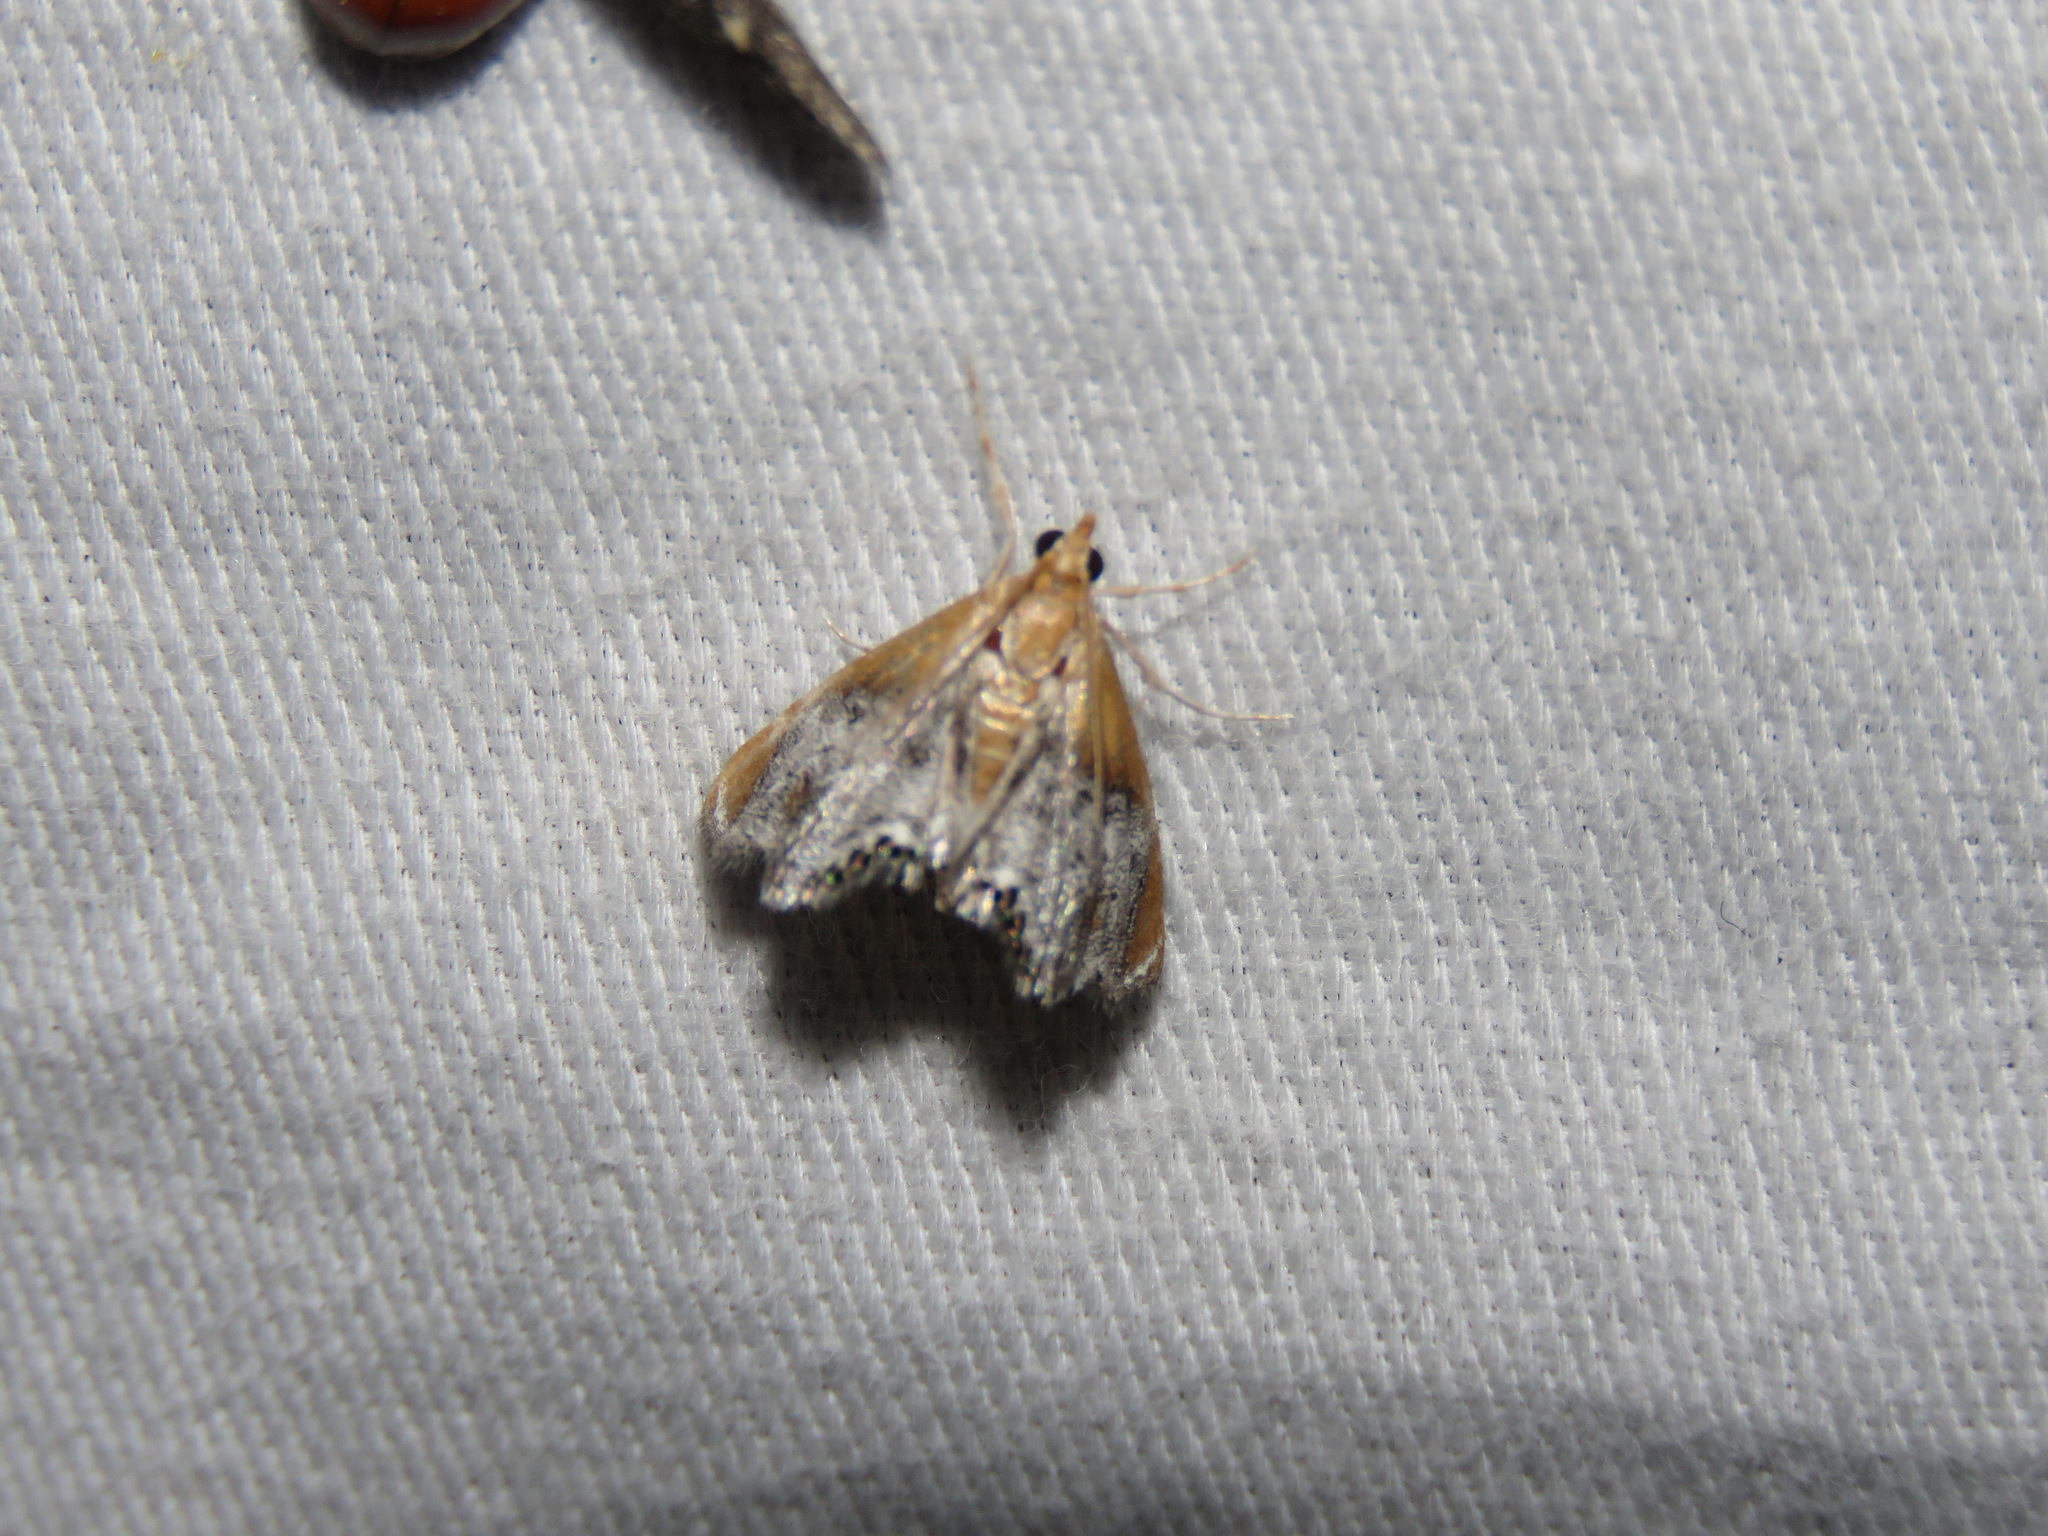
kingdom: Animalia
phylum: Arthropoda
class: Insecta
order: Lepidoptera
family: Crambidae
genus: Chalcoela
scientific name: Chalcoela iphitalis
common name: Sooty-winged chalcoela moth
